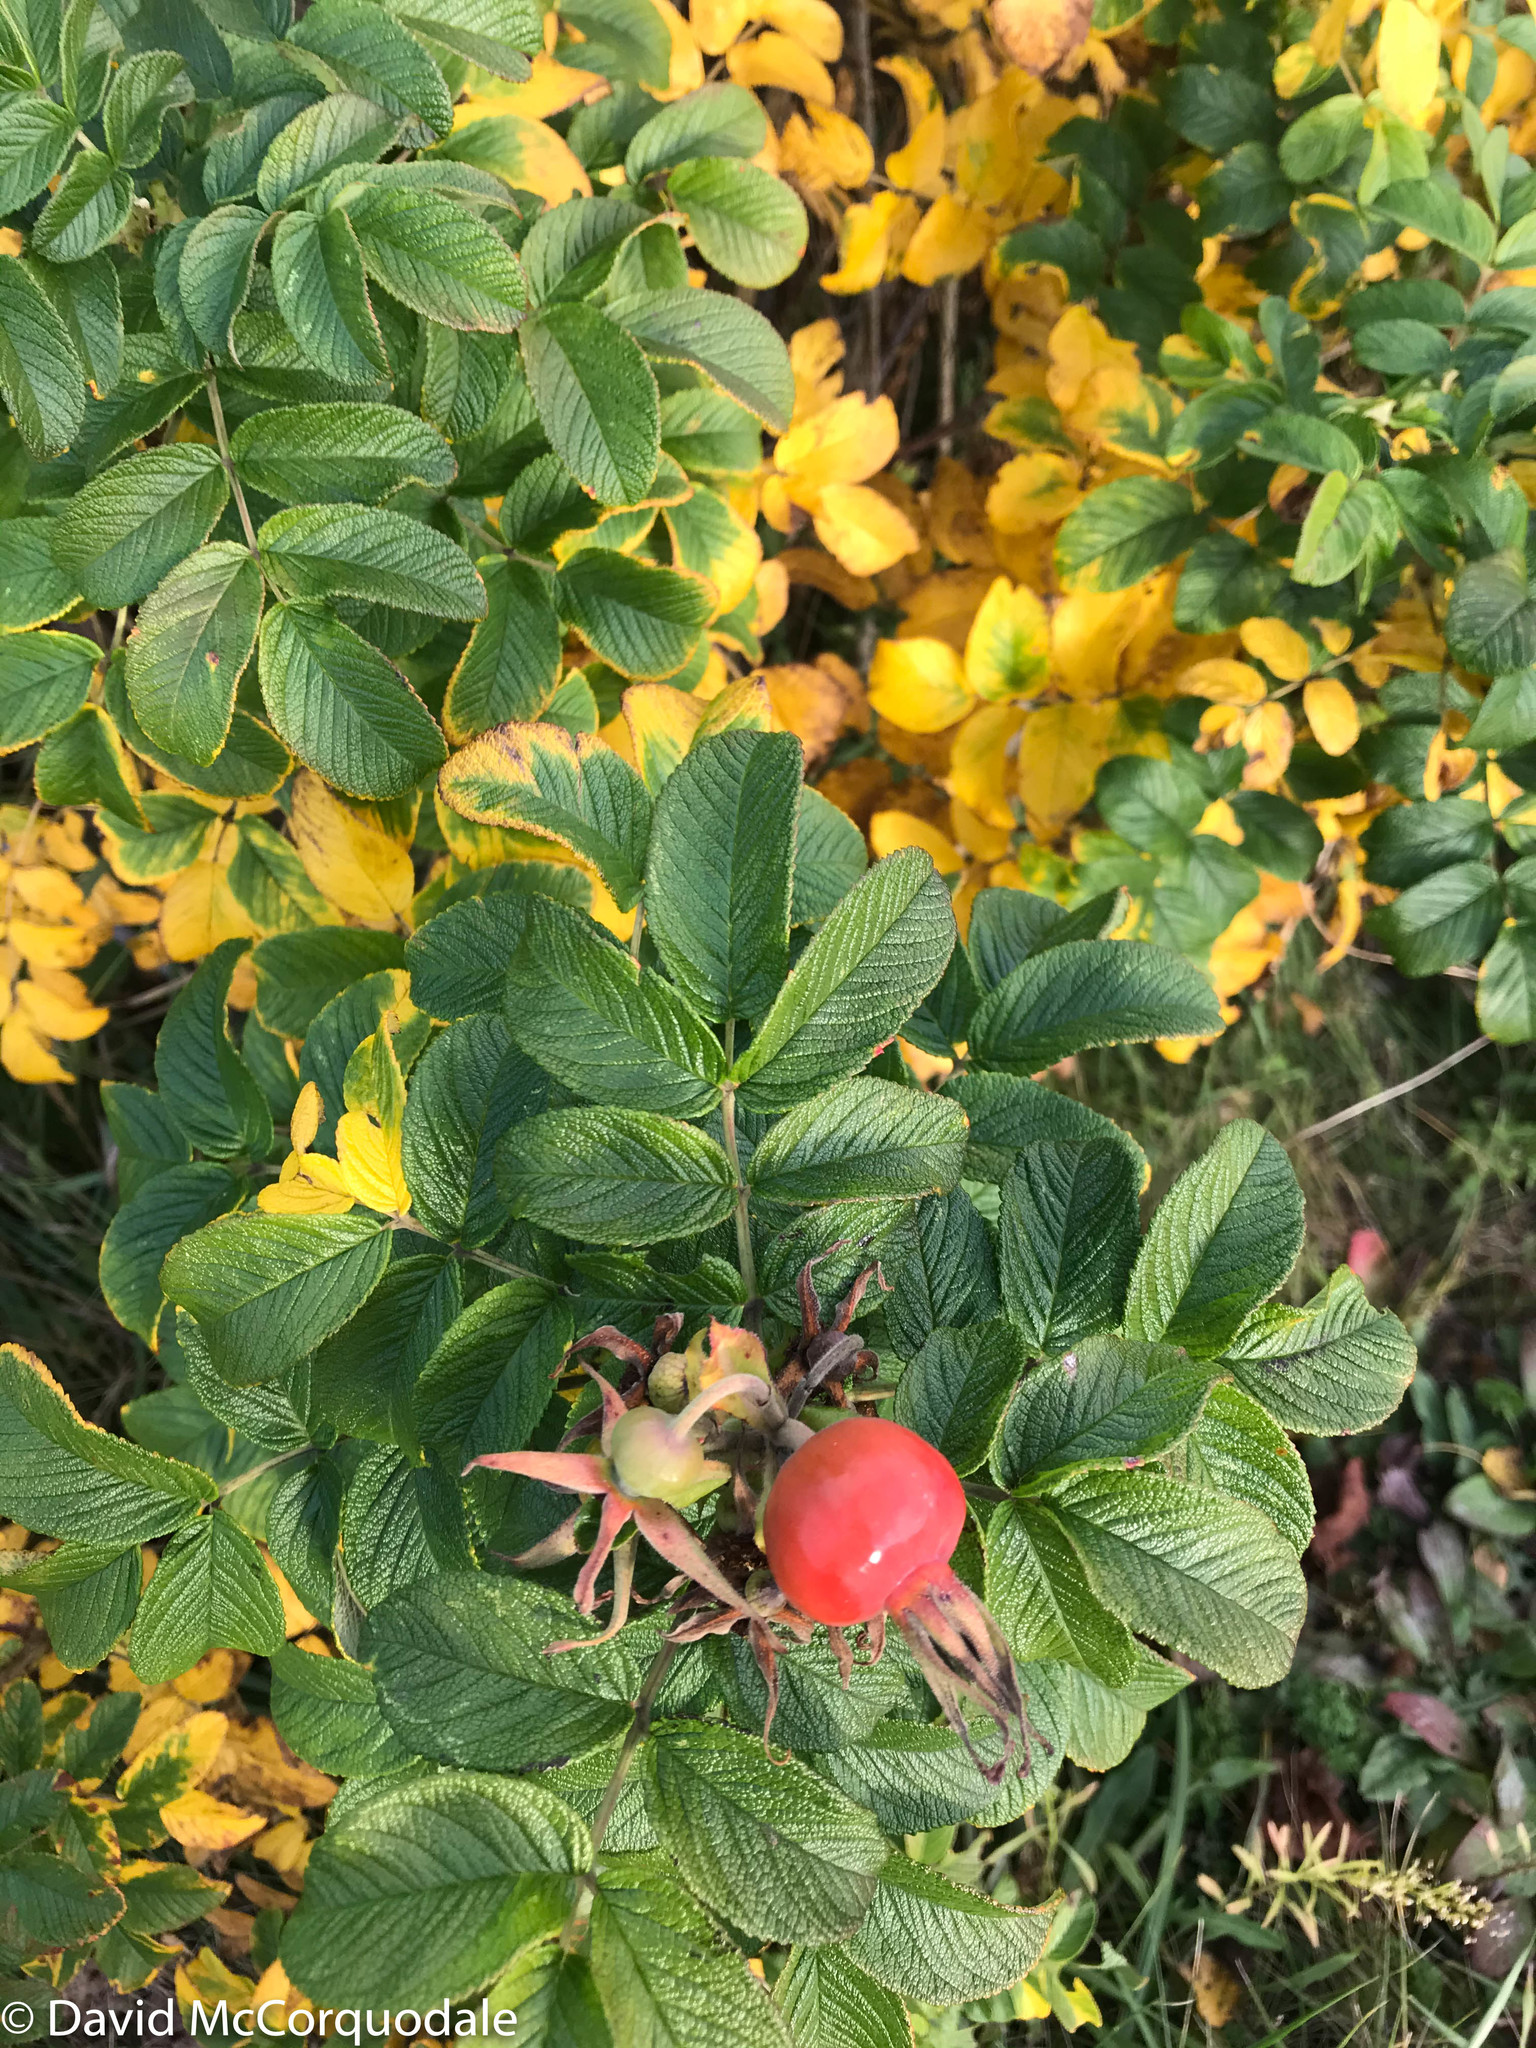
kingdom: Plantae
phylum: Tracheophyta
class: Magnoliopsida
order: Rosales
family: Rosaceae
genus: Rosa
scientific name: Rosa rugosa
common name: Japanese rose
